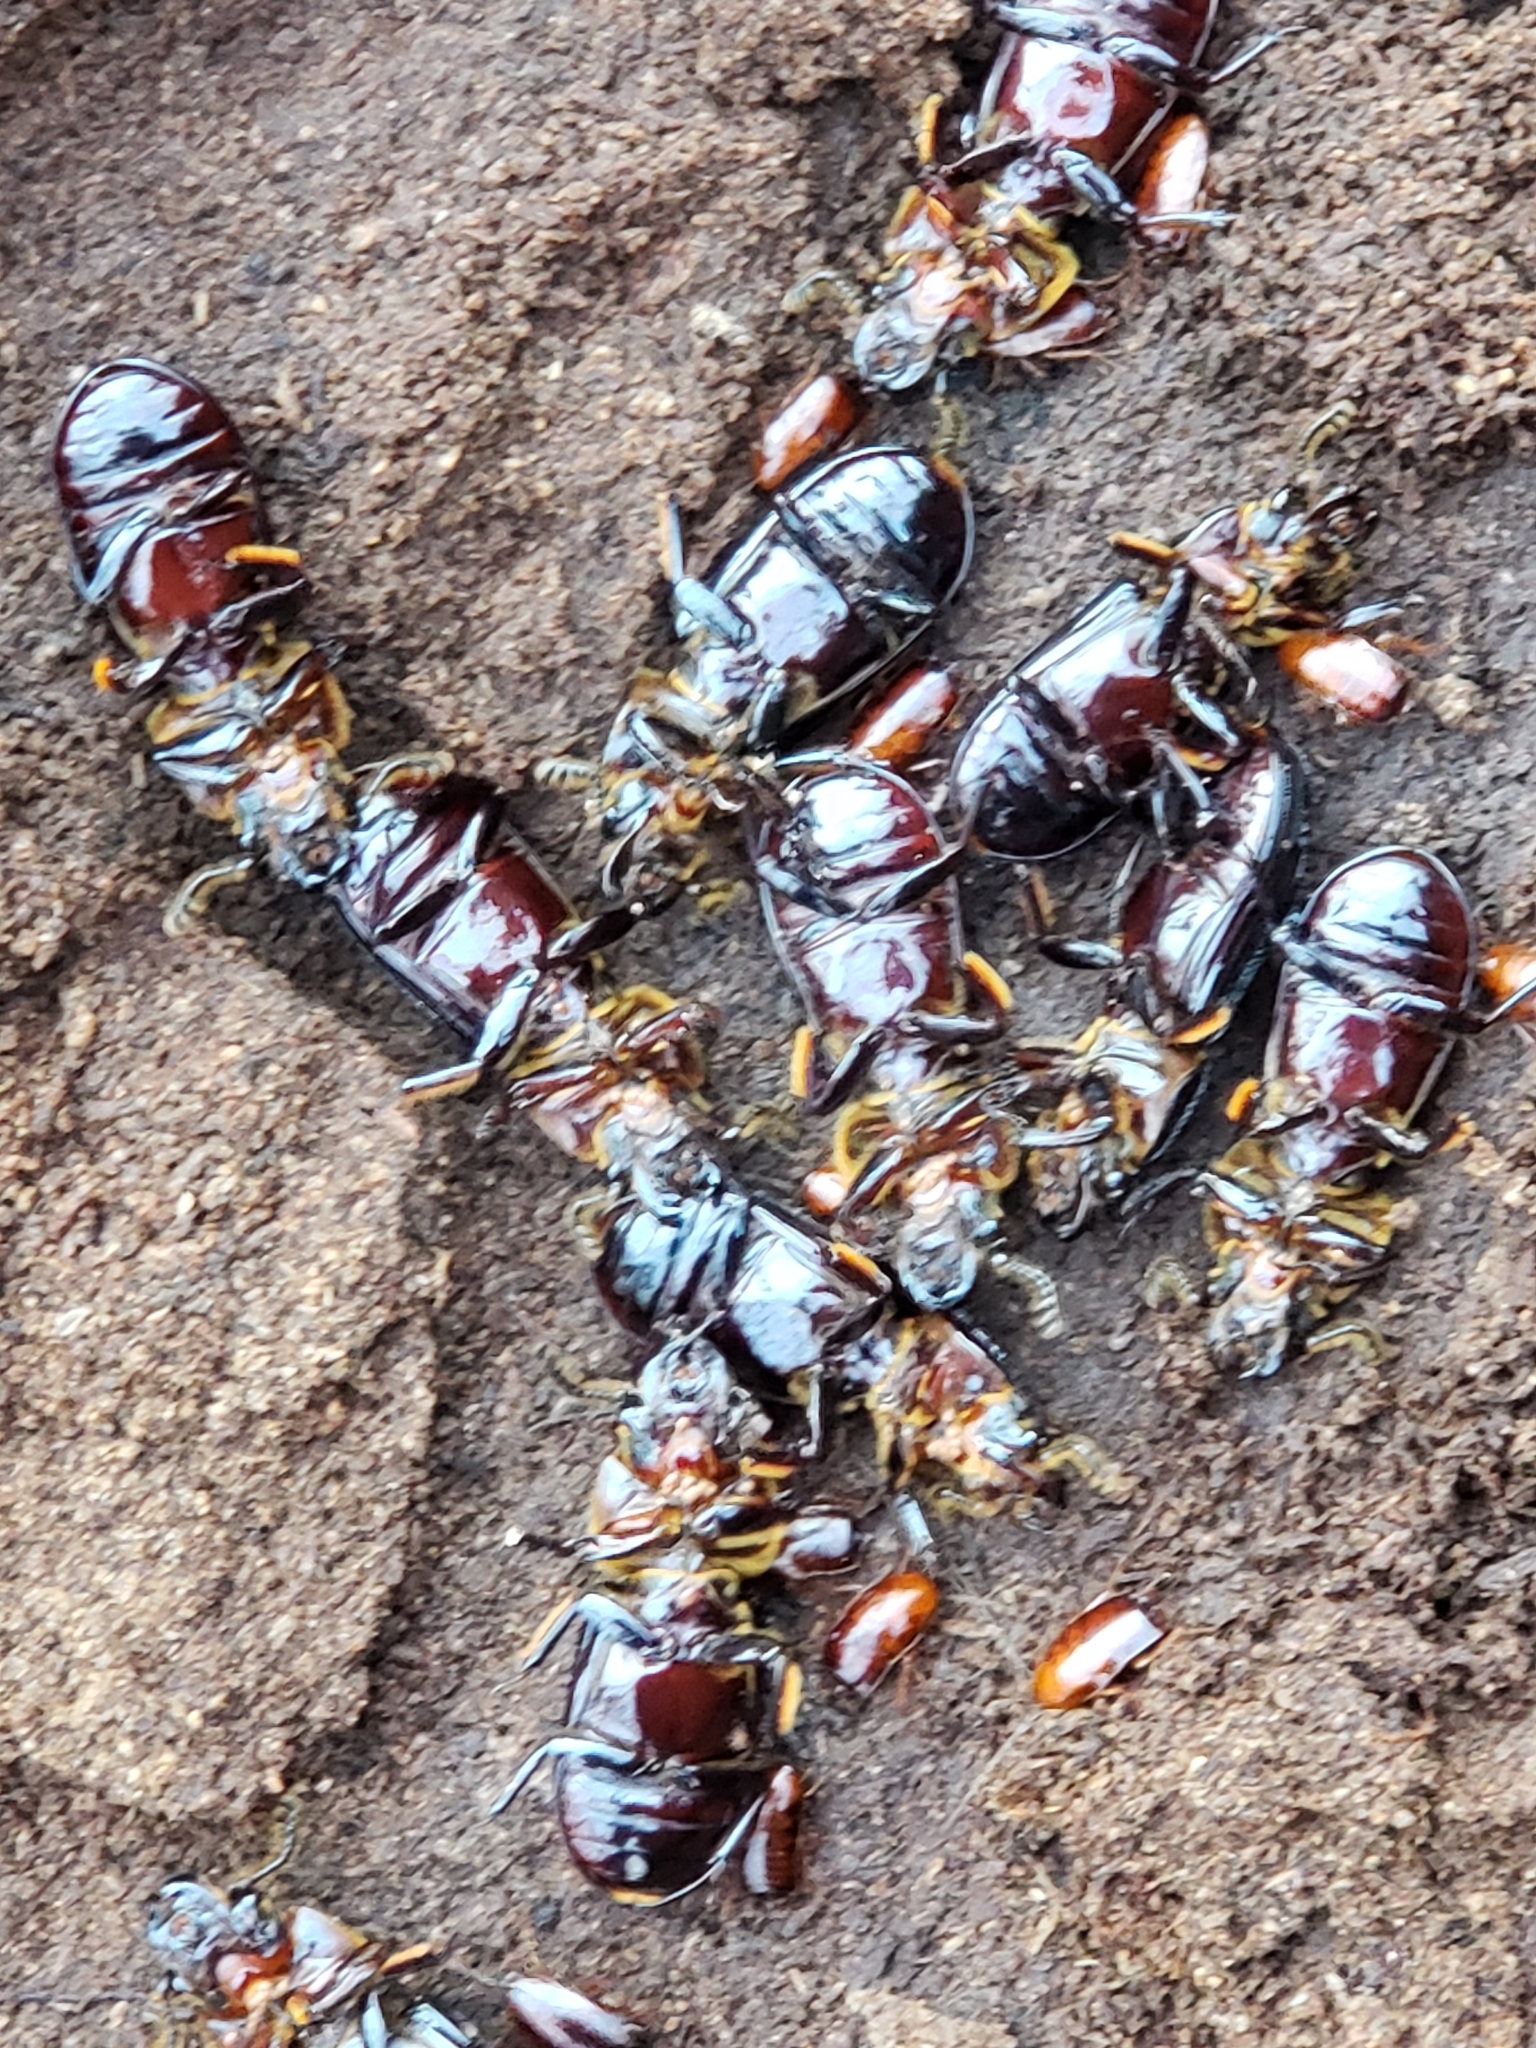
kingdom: Animalia
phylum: Arthropoda
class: Insecta
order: Coleoptera
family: Passalidae
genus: Odontotaenius
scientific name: Odontotaenius disjunctus
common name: Patent leather beetle
